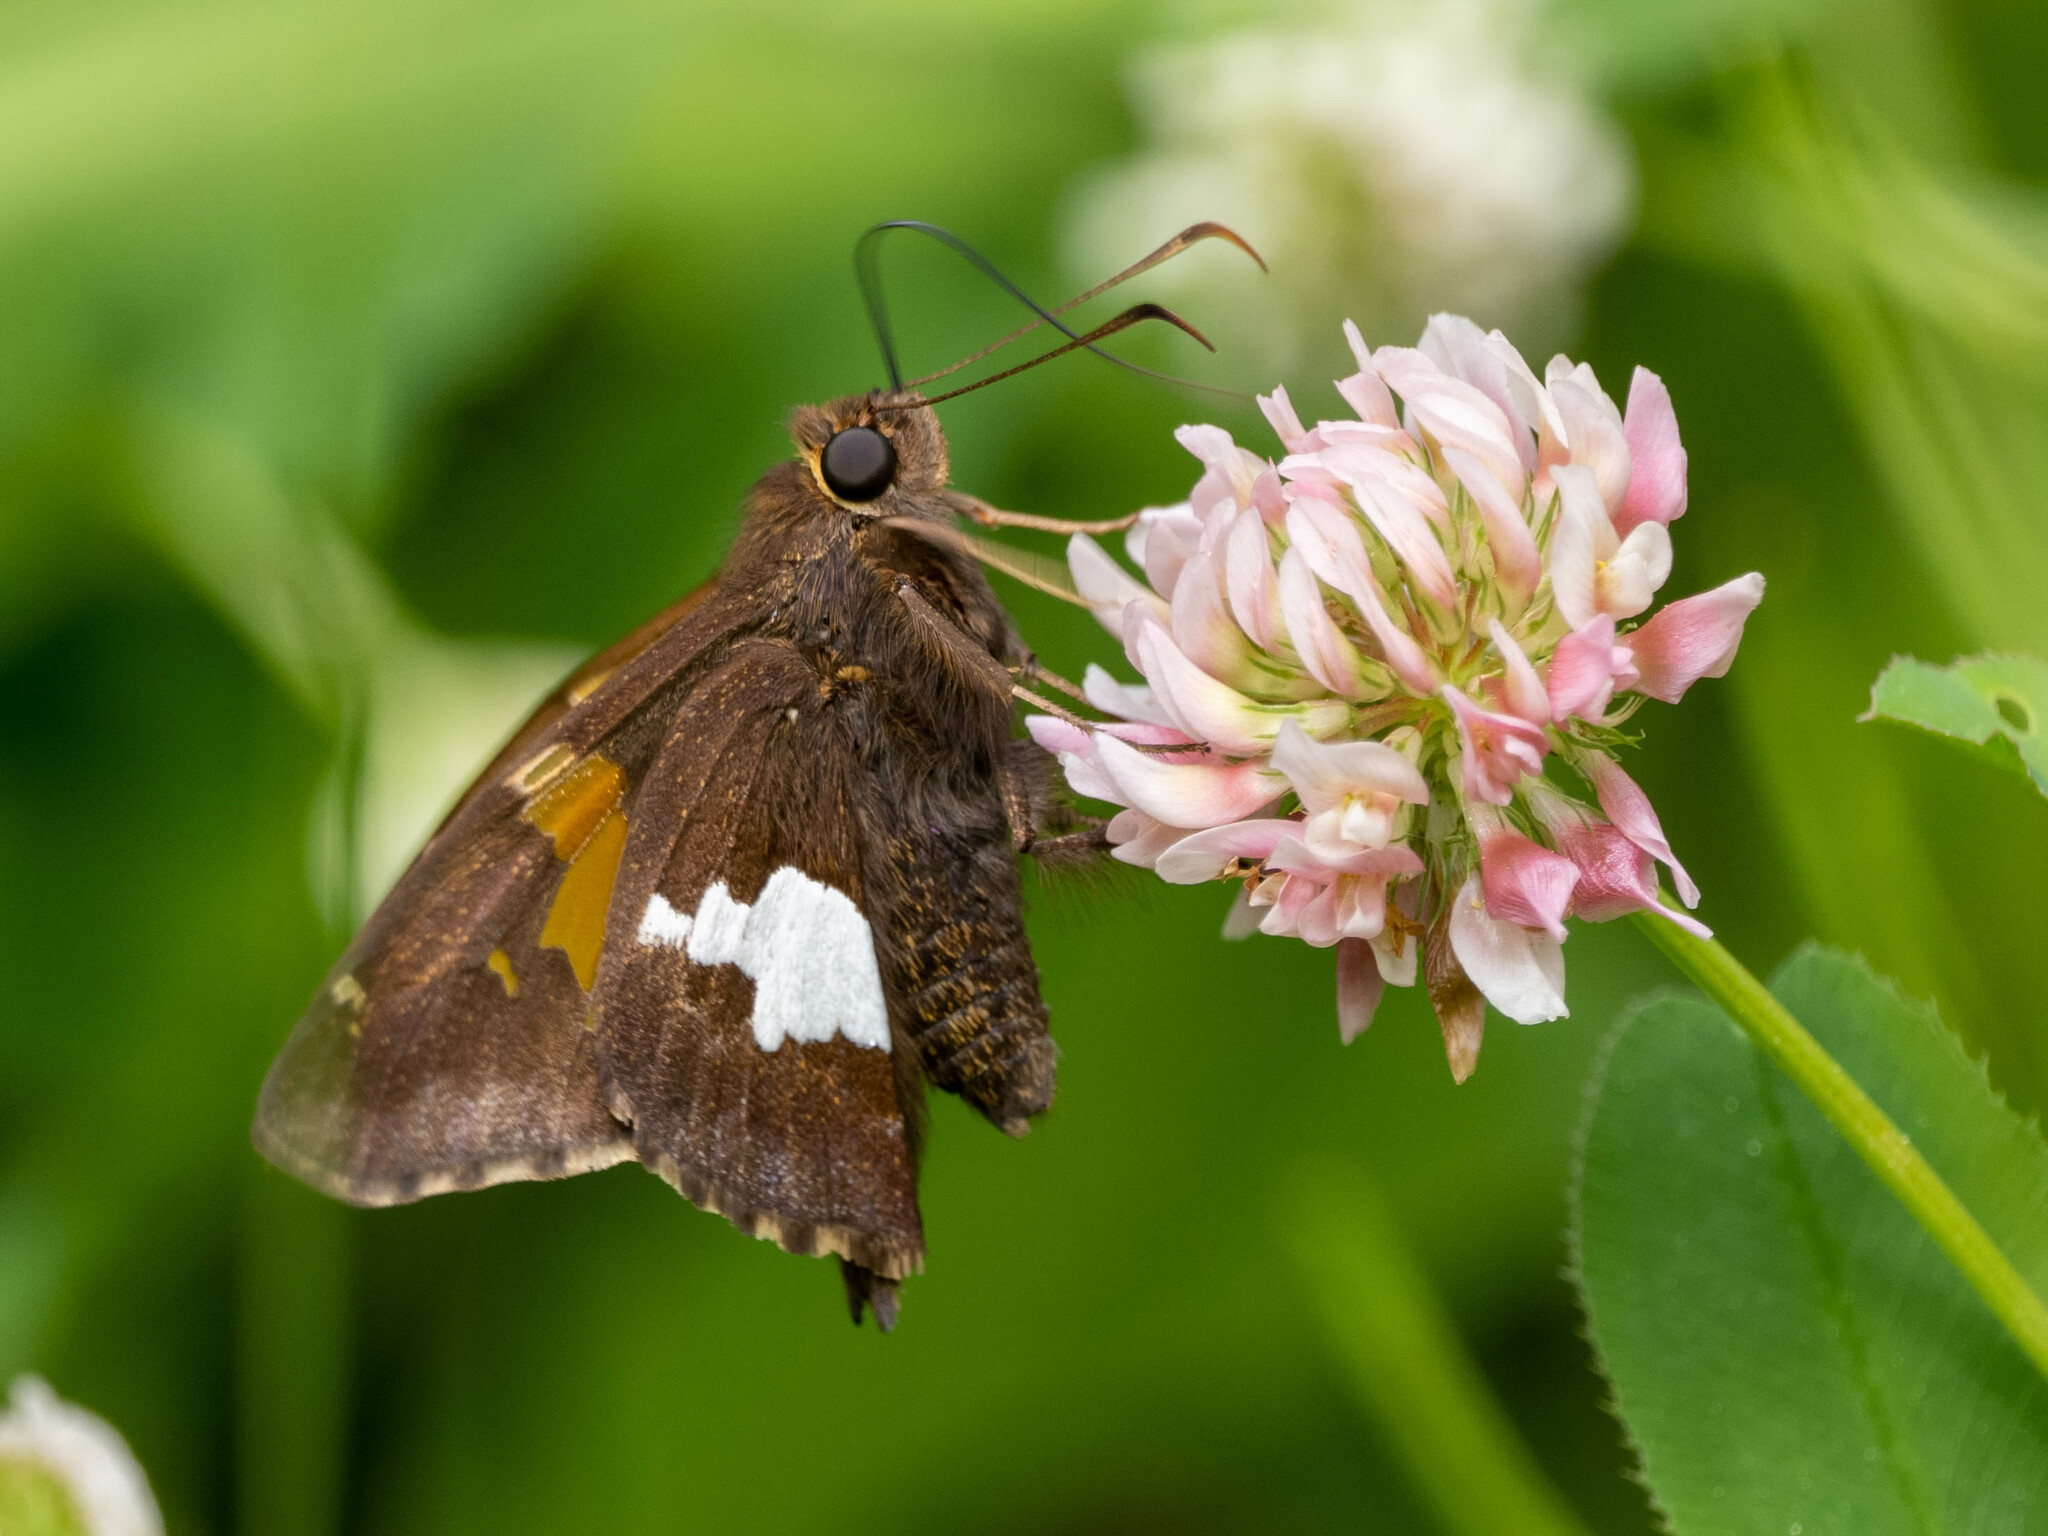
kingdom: Animalia
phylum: Arthropoda
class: Insecta
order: Lepidoptera
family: Hesperiidae
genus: Epargyreus
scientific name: Epargyreus clarus
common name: Silver-spotted skipper
